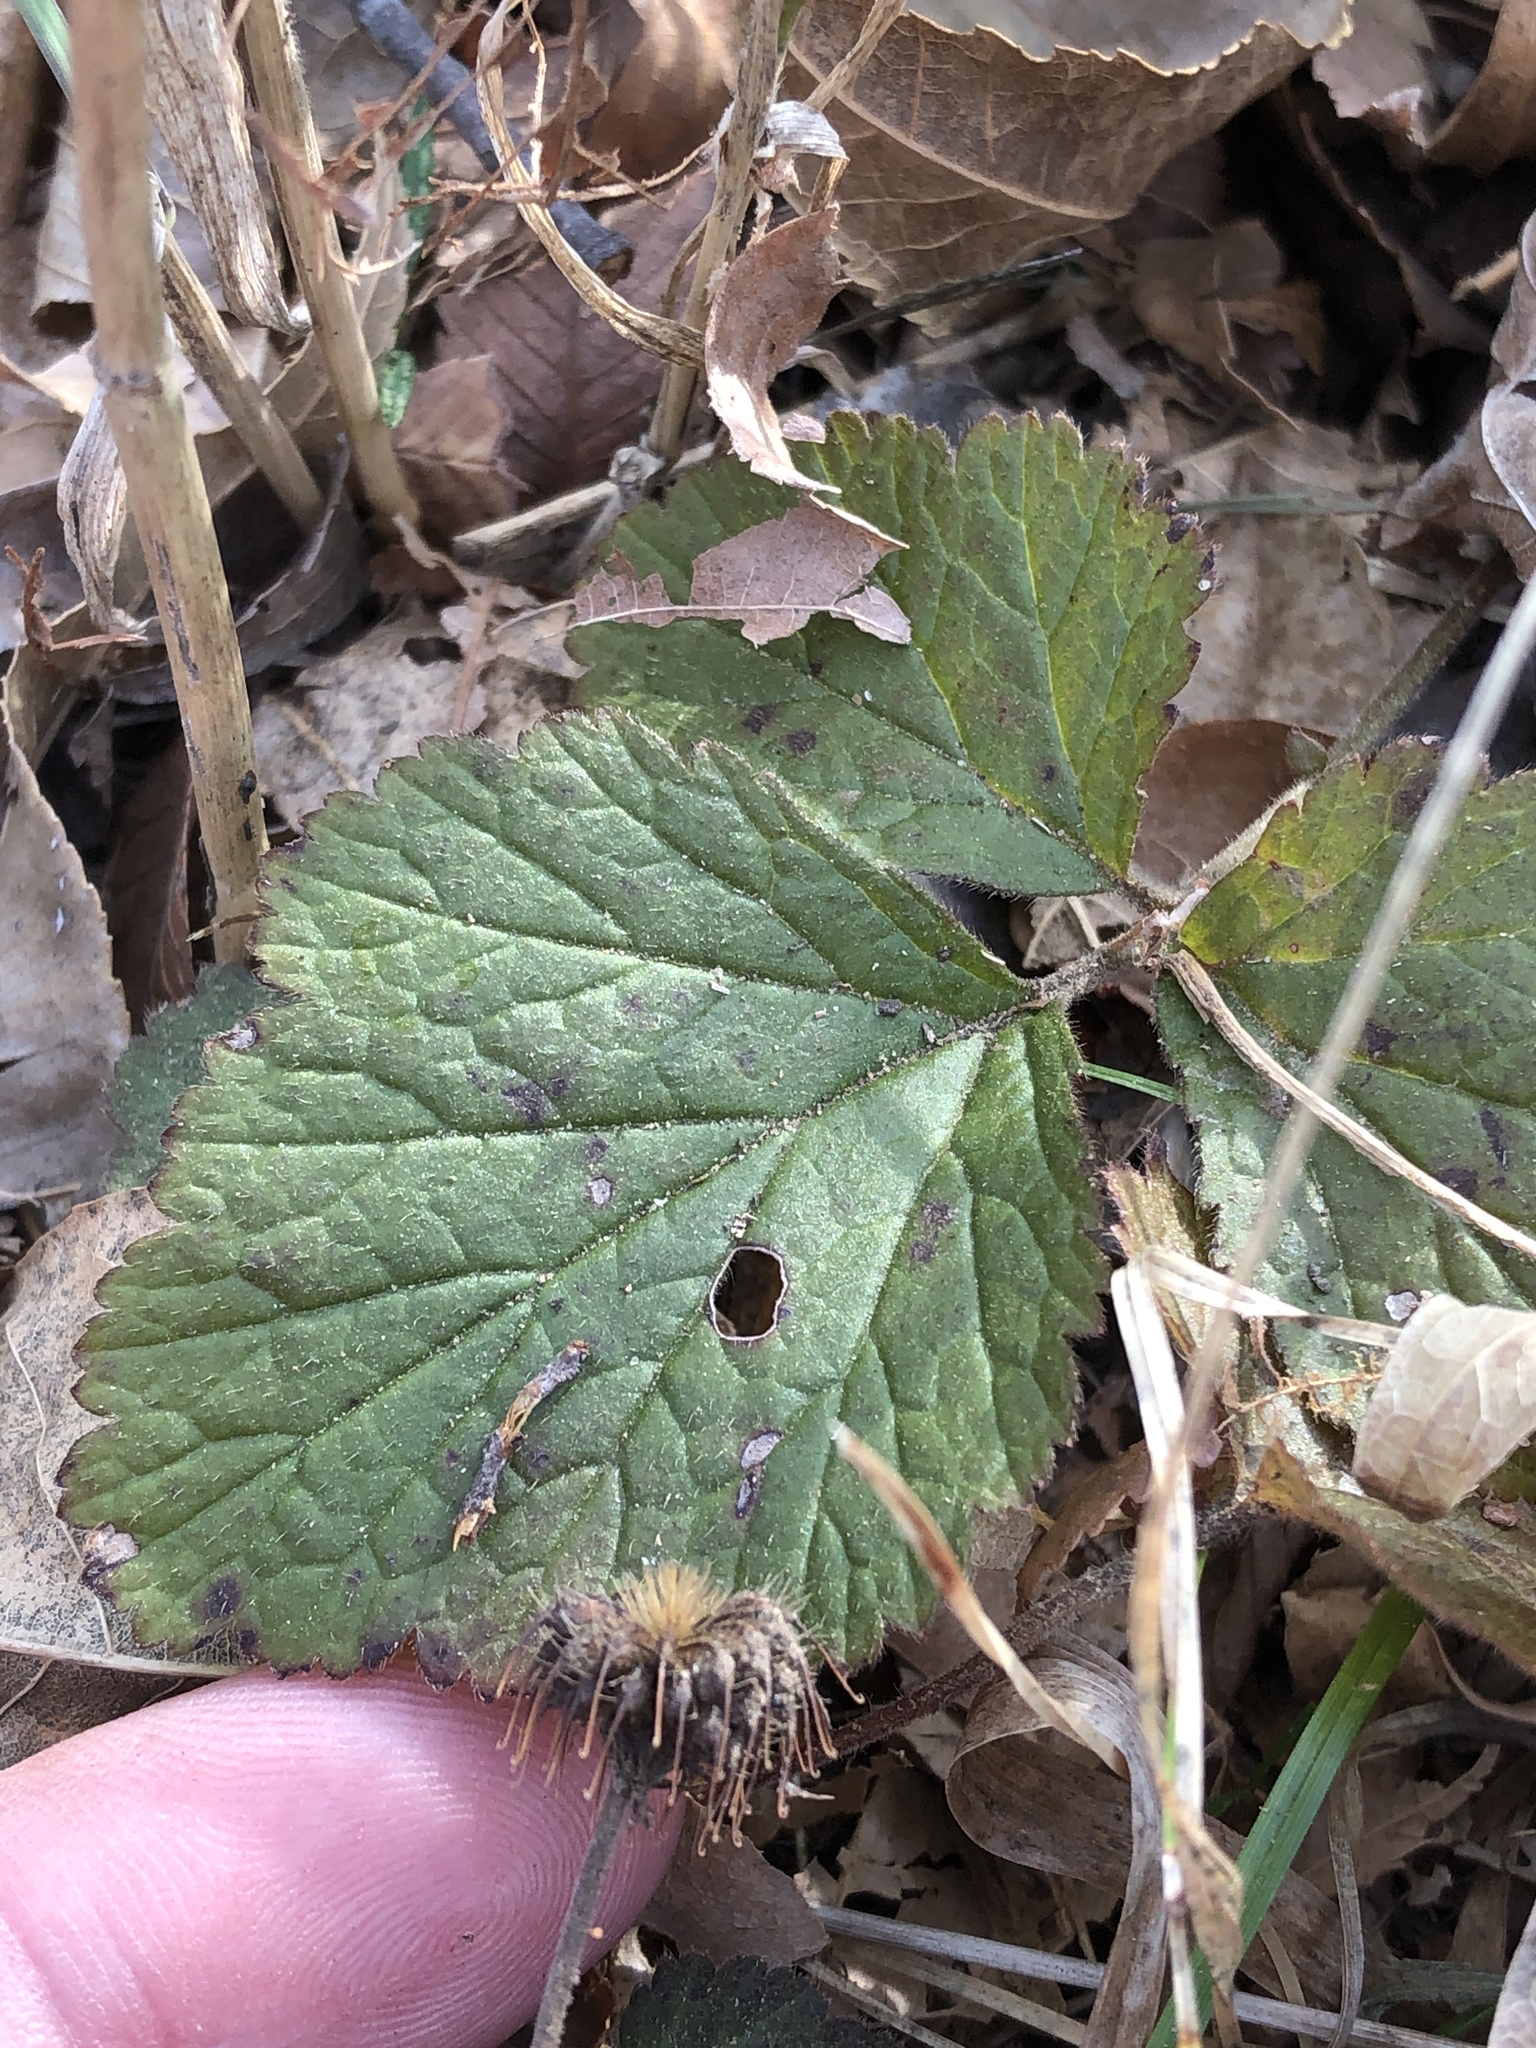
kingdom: Plantae
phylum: Tracheophyta
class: Magnoliopsida
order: Rosales
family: Rosaceae
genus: Geum
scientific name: Geum canadense
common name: White avens
